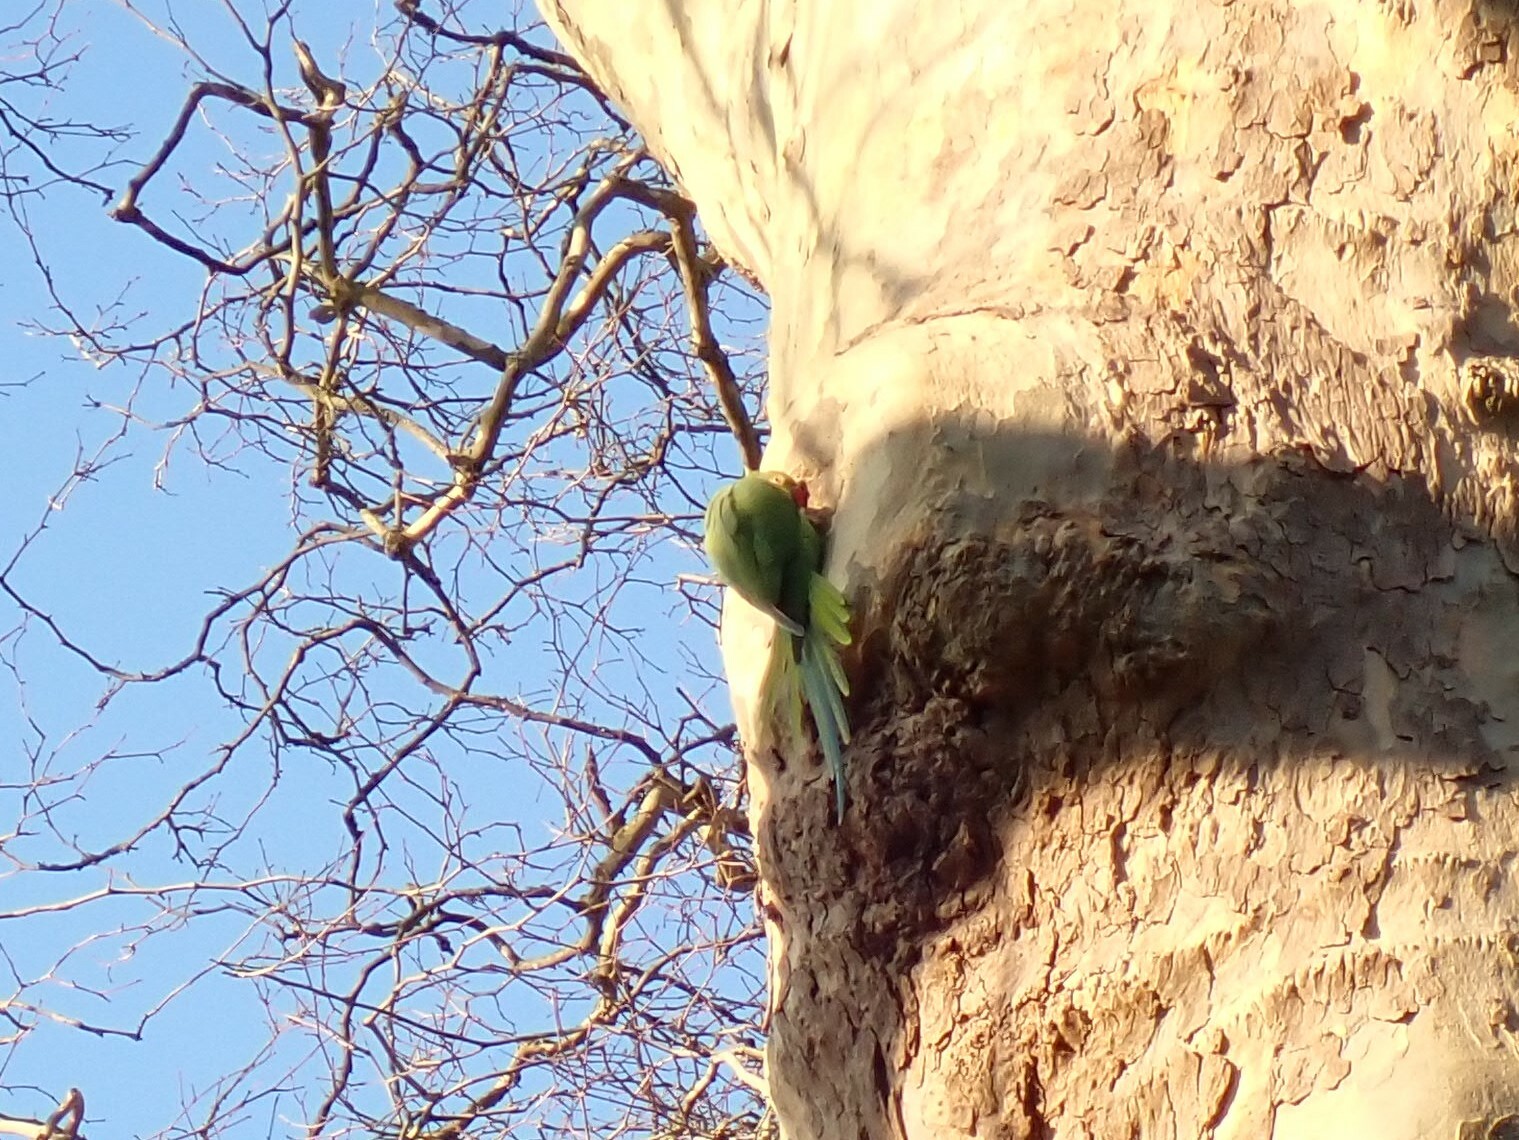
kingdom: Animalia
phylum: Chordata
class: Aves
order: Psittaciformes
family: Psittacidae
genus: Psittacula
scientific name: Psittacula krameri
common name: Rose-ringed parakeet
